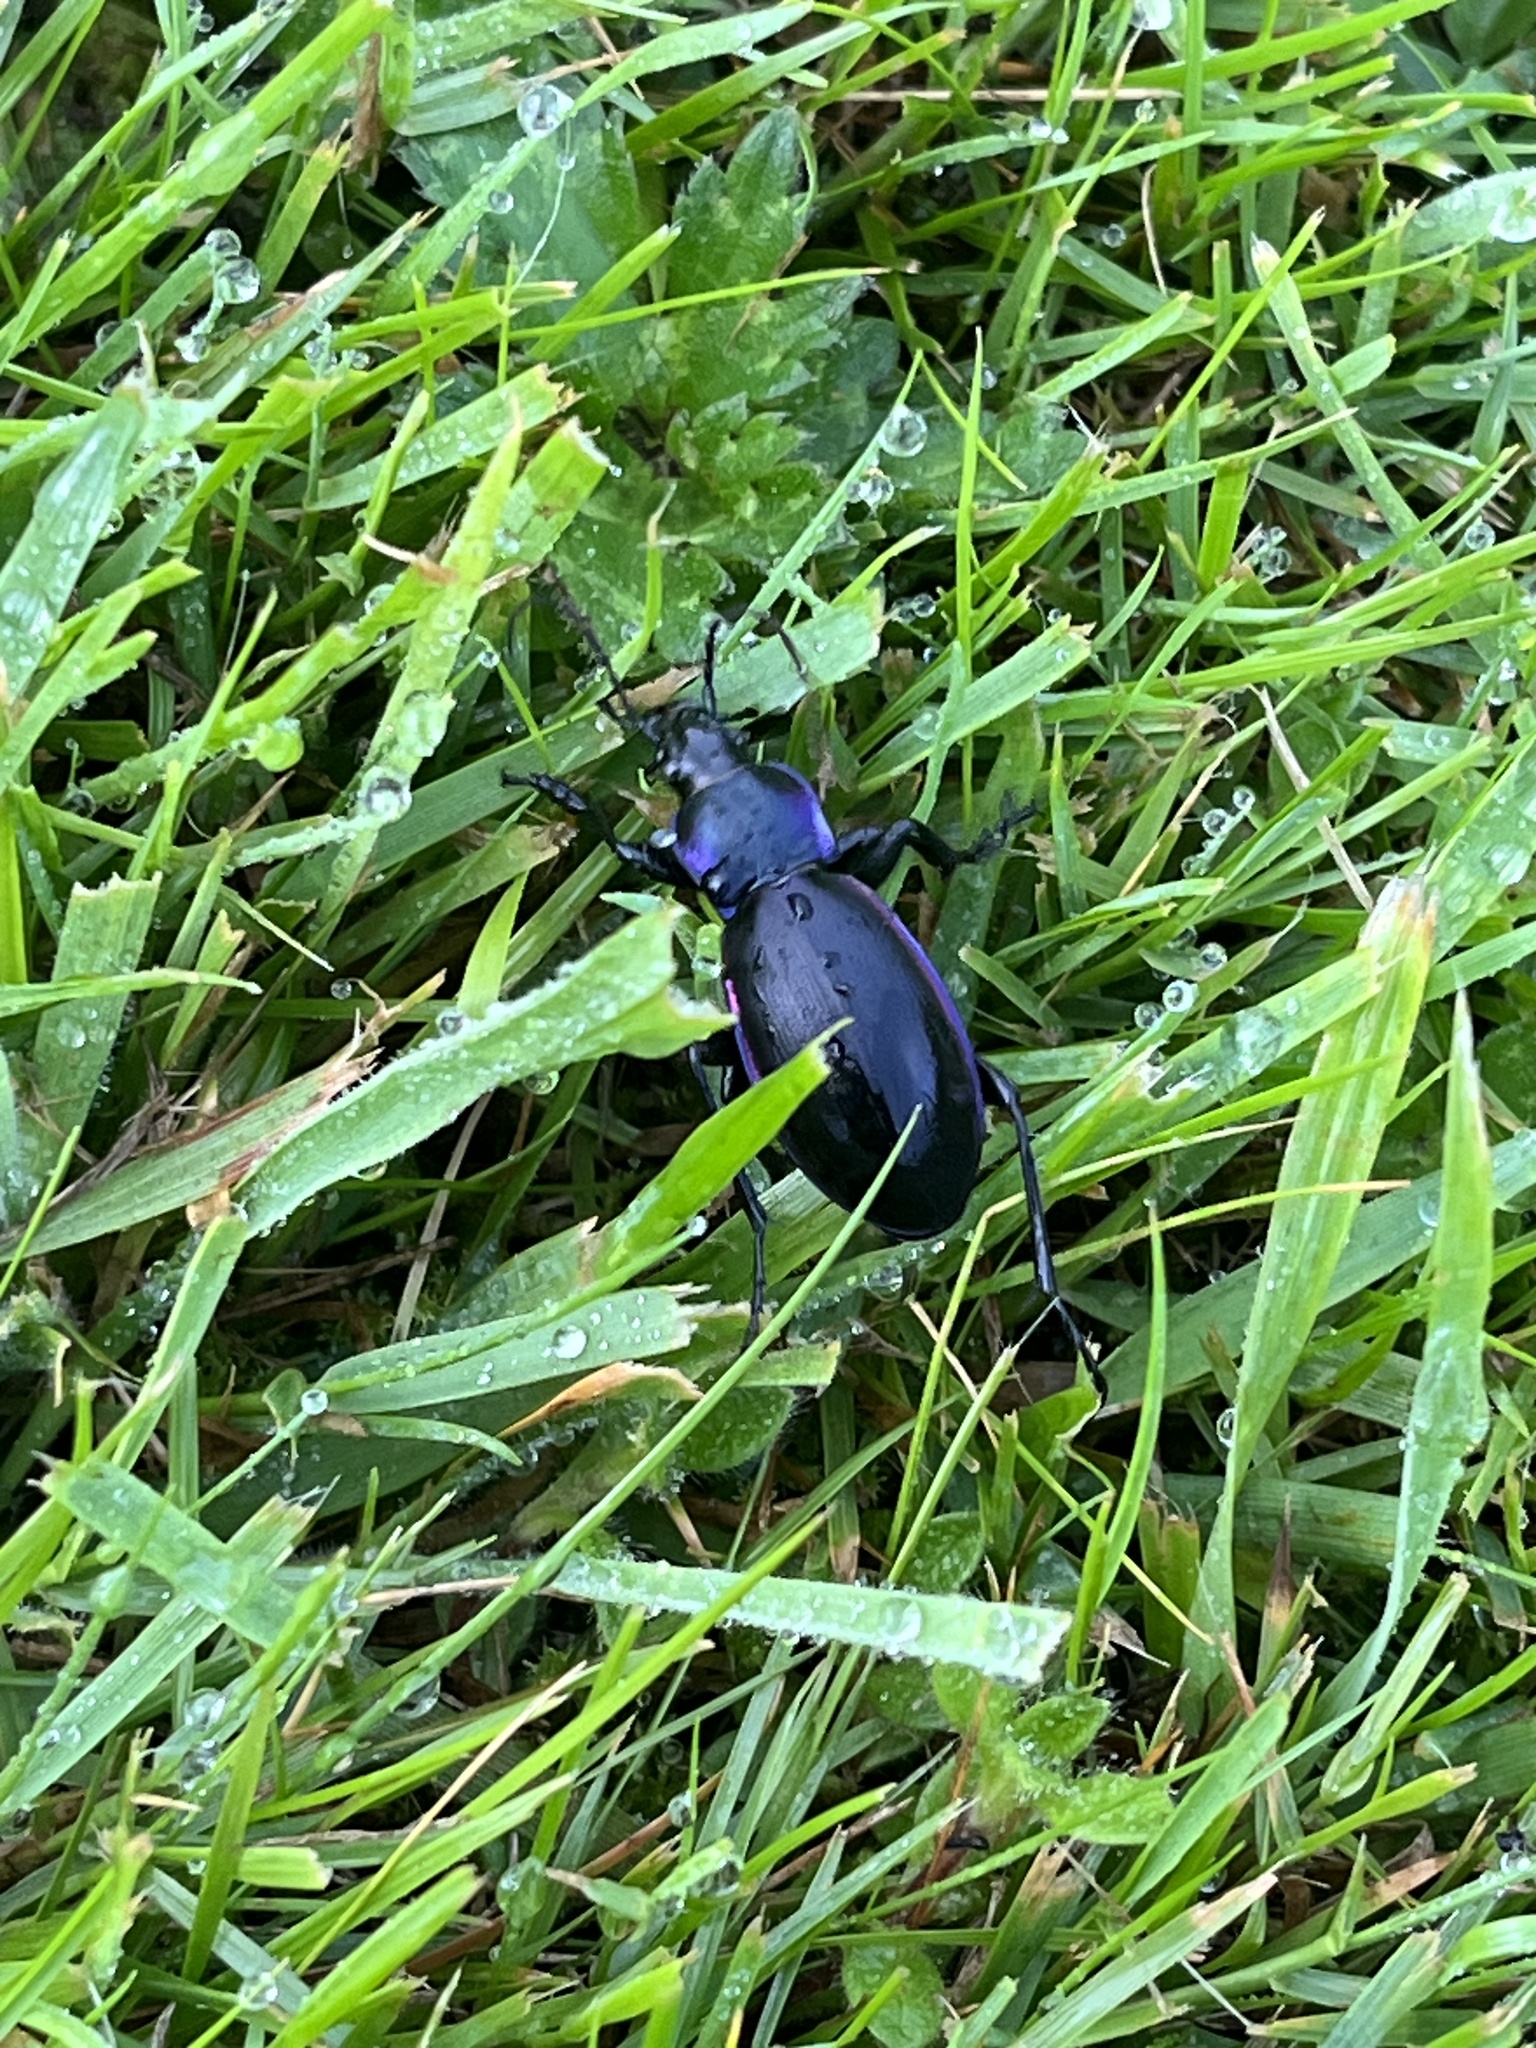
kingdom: Animalia
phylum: Arthropoda
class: Insecta
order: Coleoptera
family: Carabidae
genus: Carabus
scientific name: Carabus violaceus
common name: Violet ground beetle
